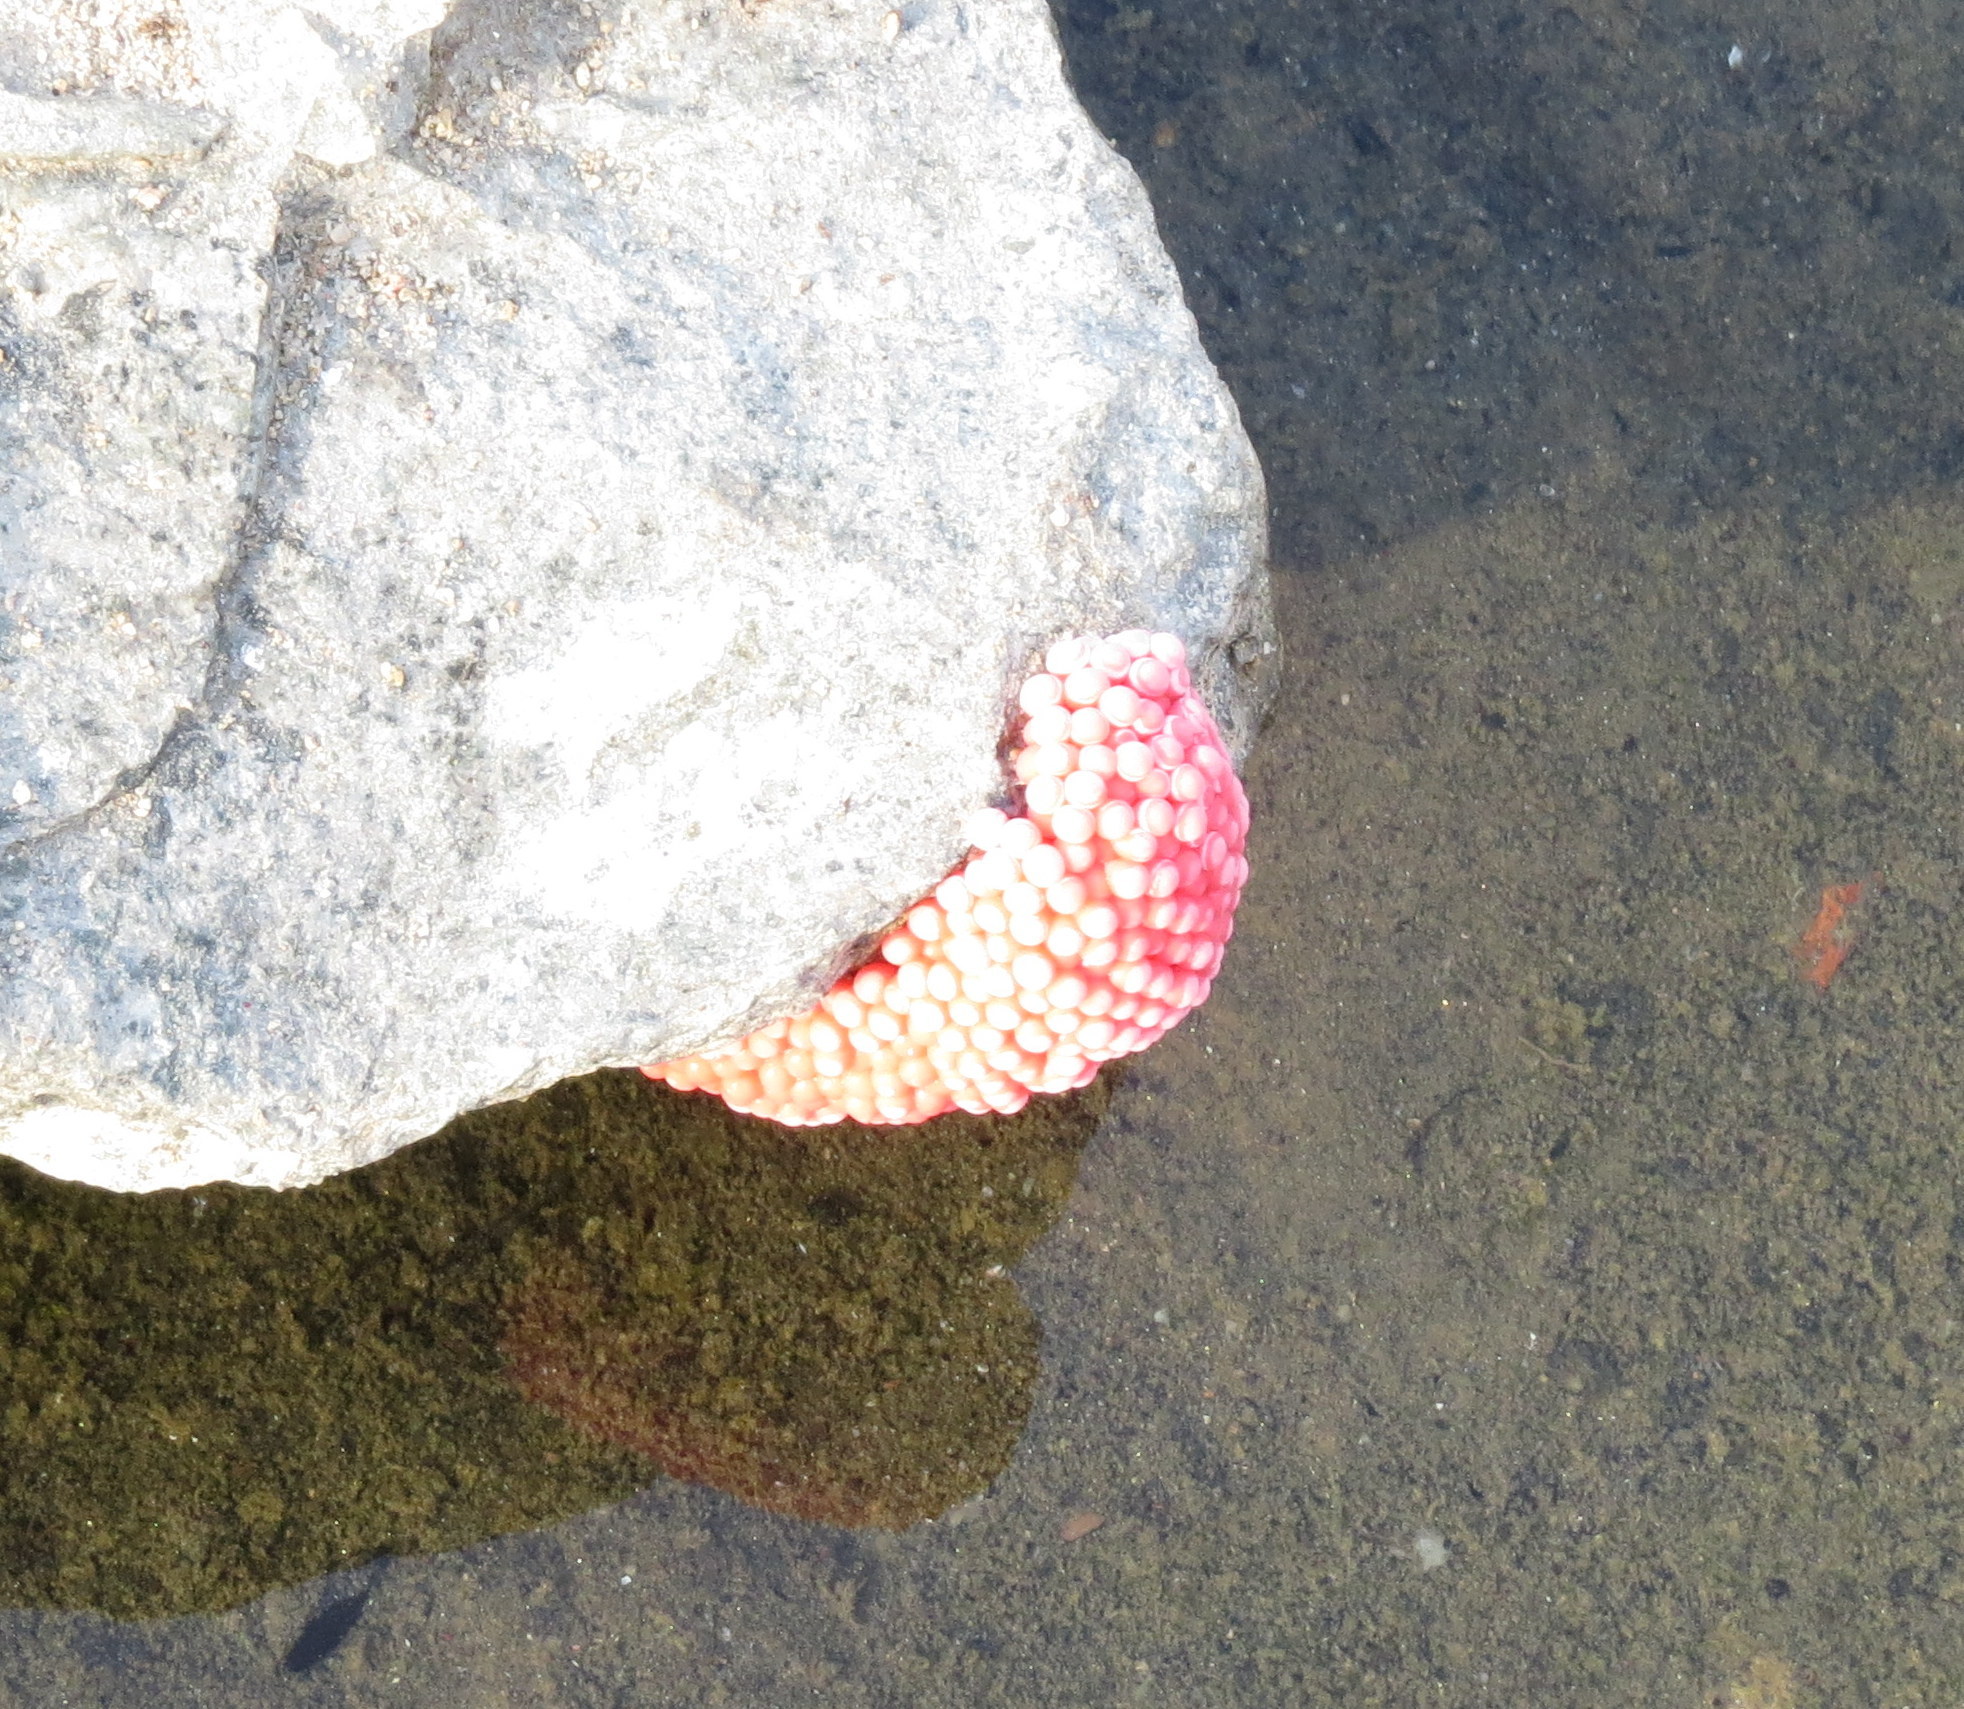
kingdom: Animalia
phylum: Mollusca
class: Gastropoda
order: Architaenioglossa
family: Ampullariidae
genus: Pomacea
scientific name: Pomacea canaliculata
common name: Channeled applesnail
